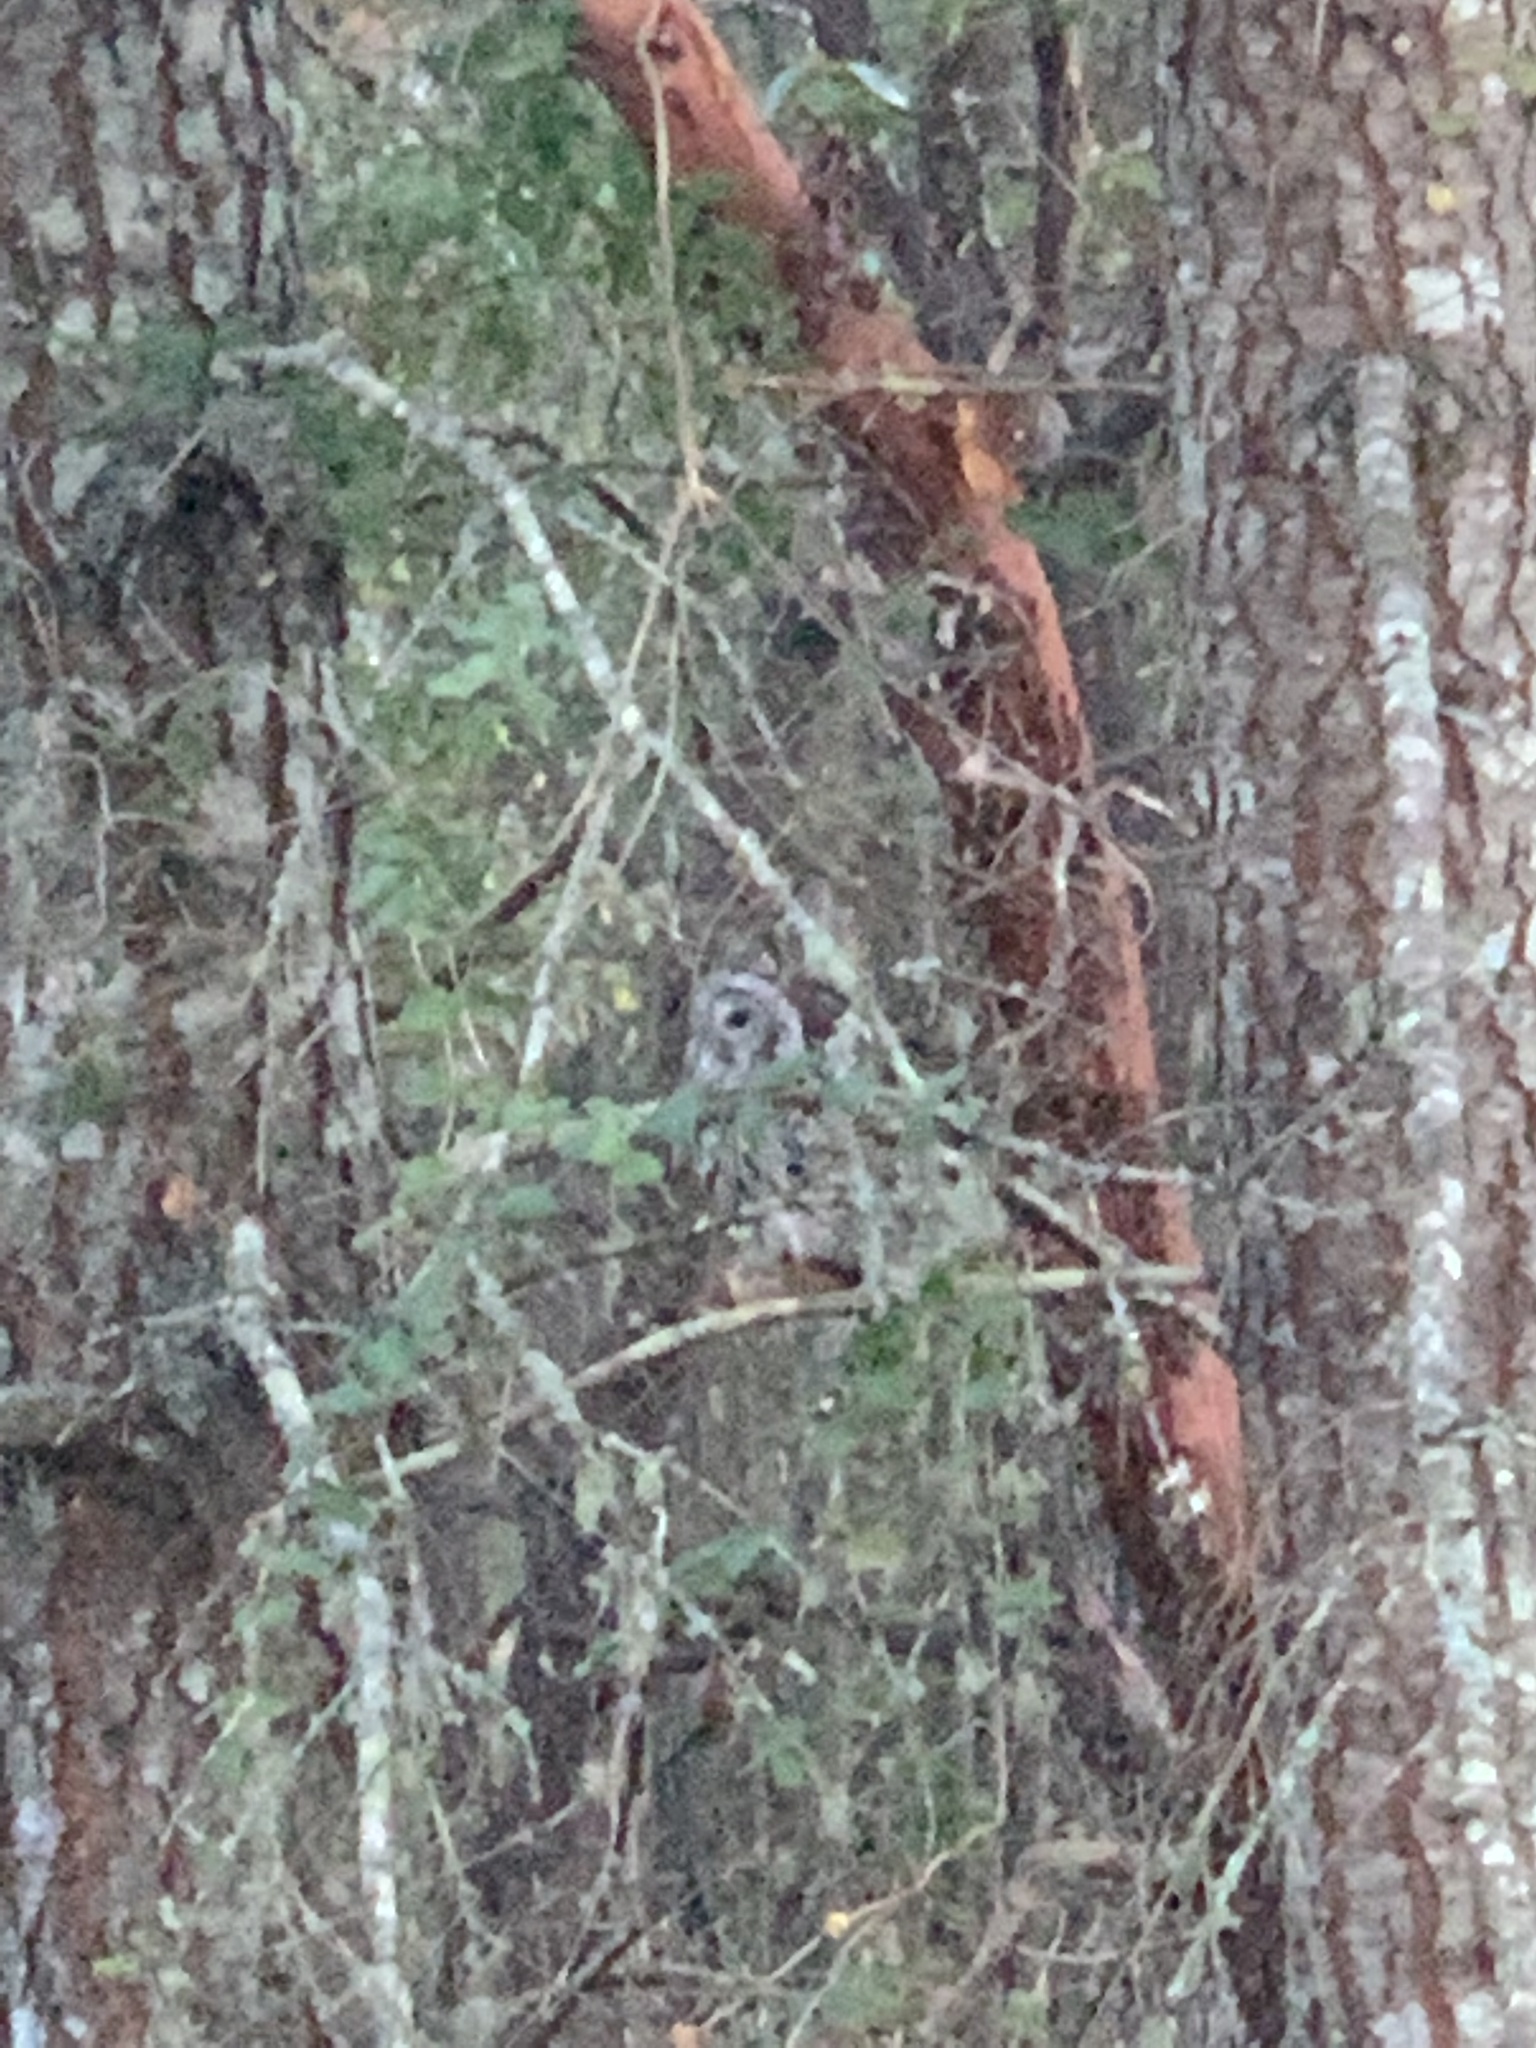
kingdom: Animalia
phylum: Chordata
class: Aves
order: Strigiformes
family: Strigidae
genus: Strix
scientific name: Strix varia
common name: Barred owl
